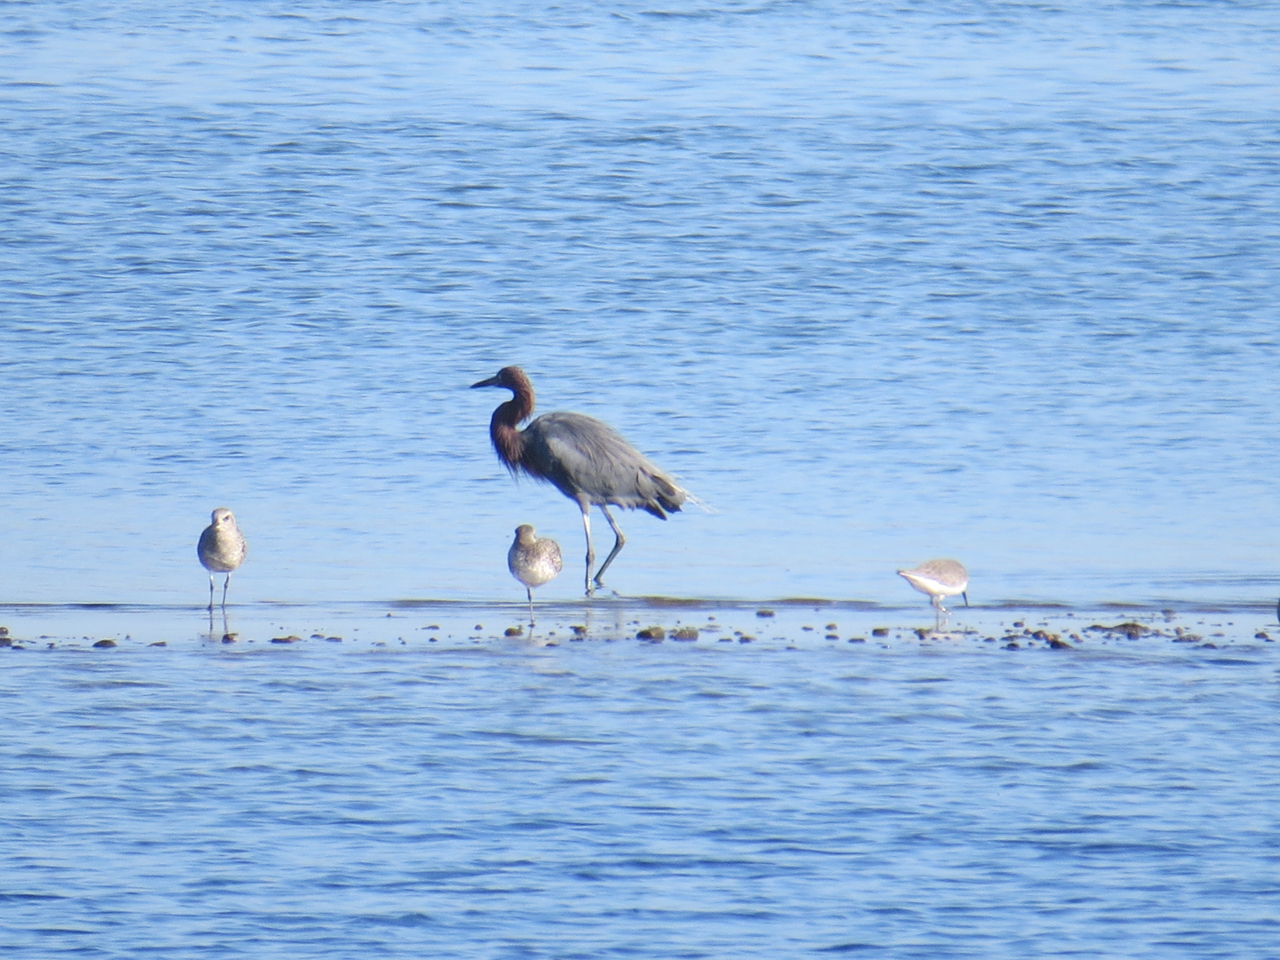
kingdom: Animalia
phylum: Chordata
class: Aves
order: Pelecaniformes
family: Ardeidae
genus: Egretta
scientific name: Egretta rufescens
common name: Reddish egret
